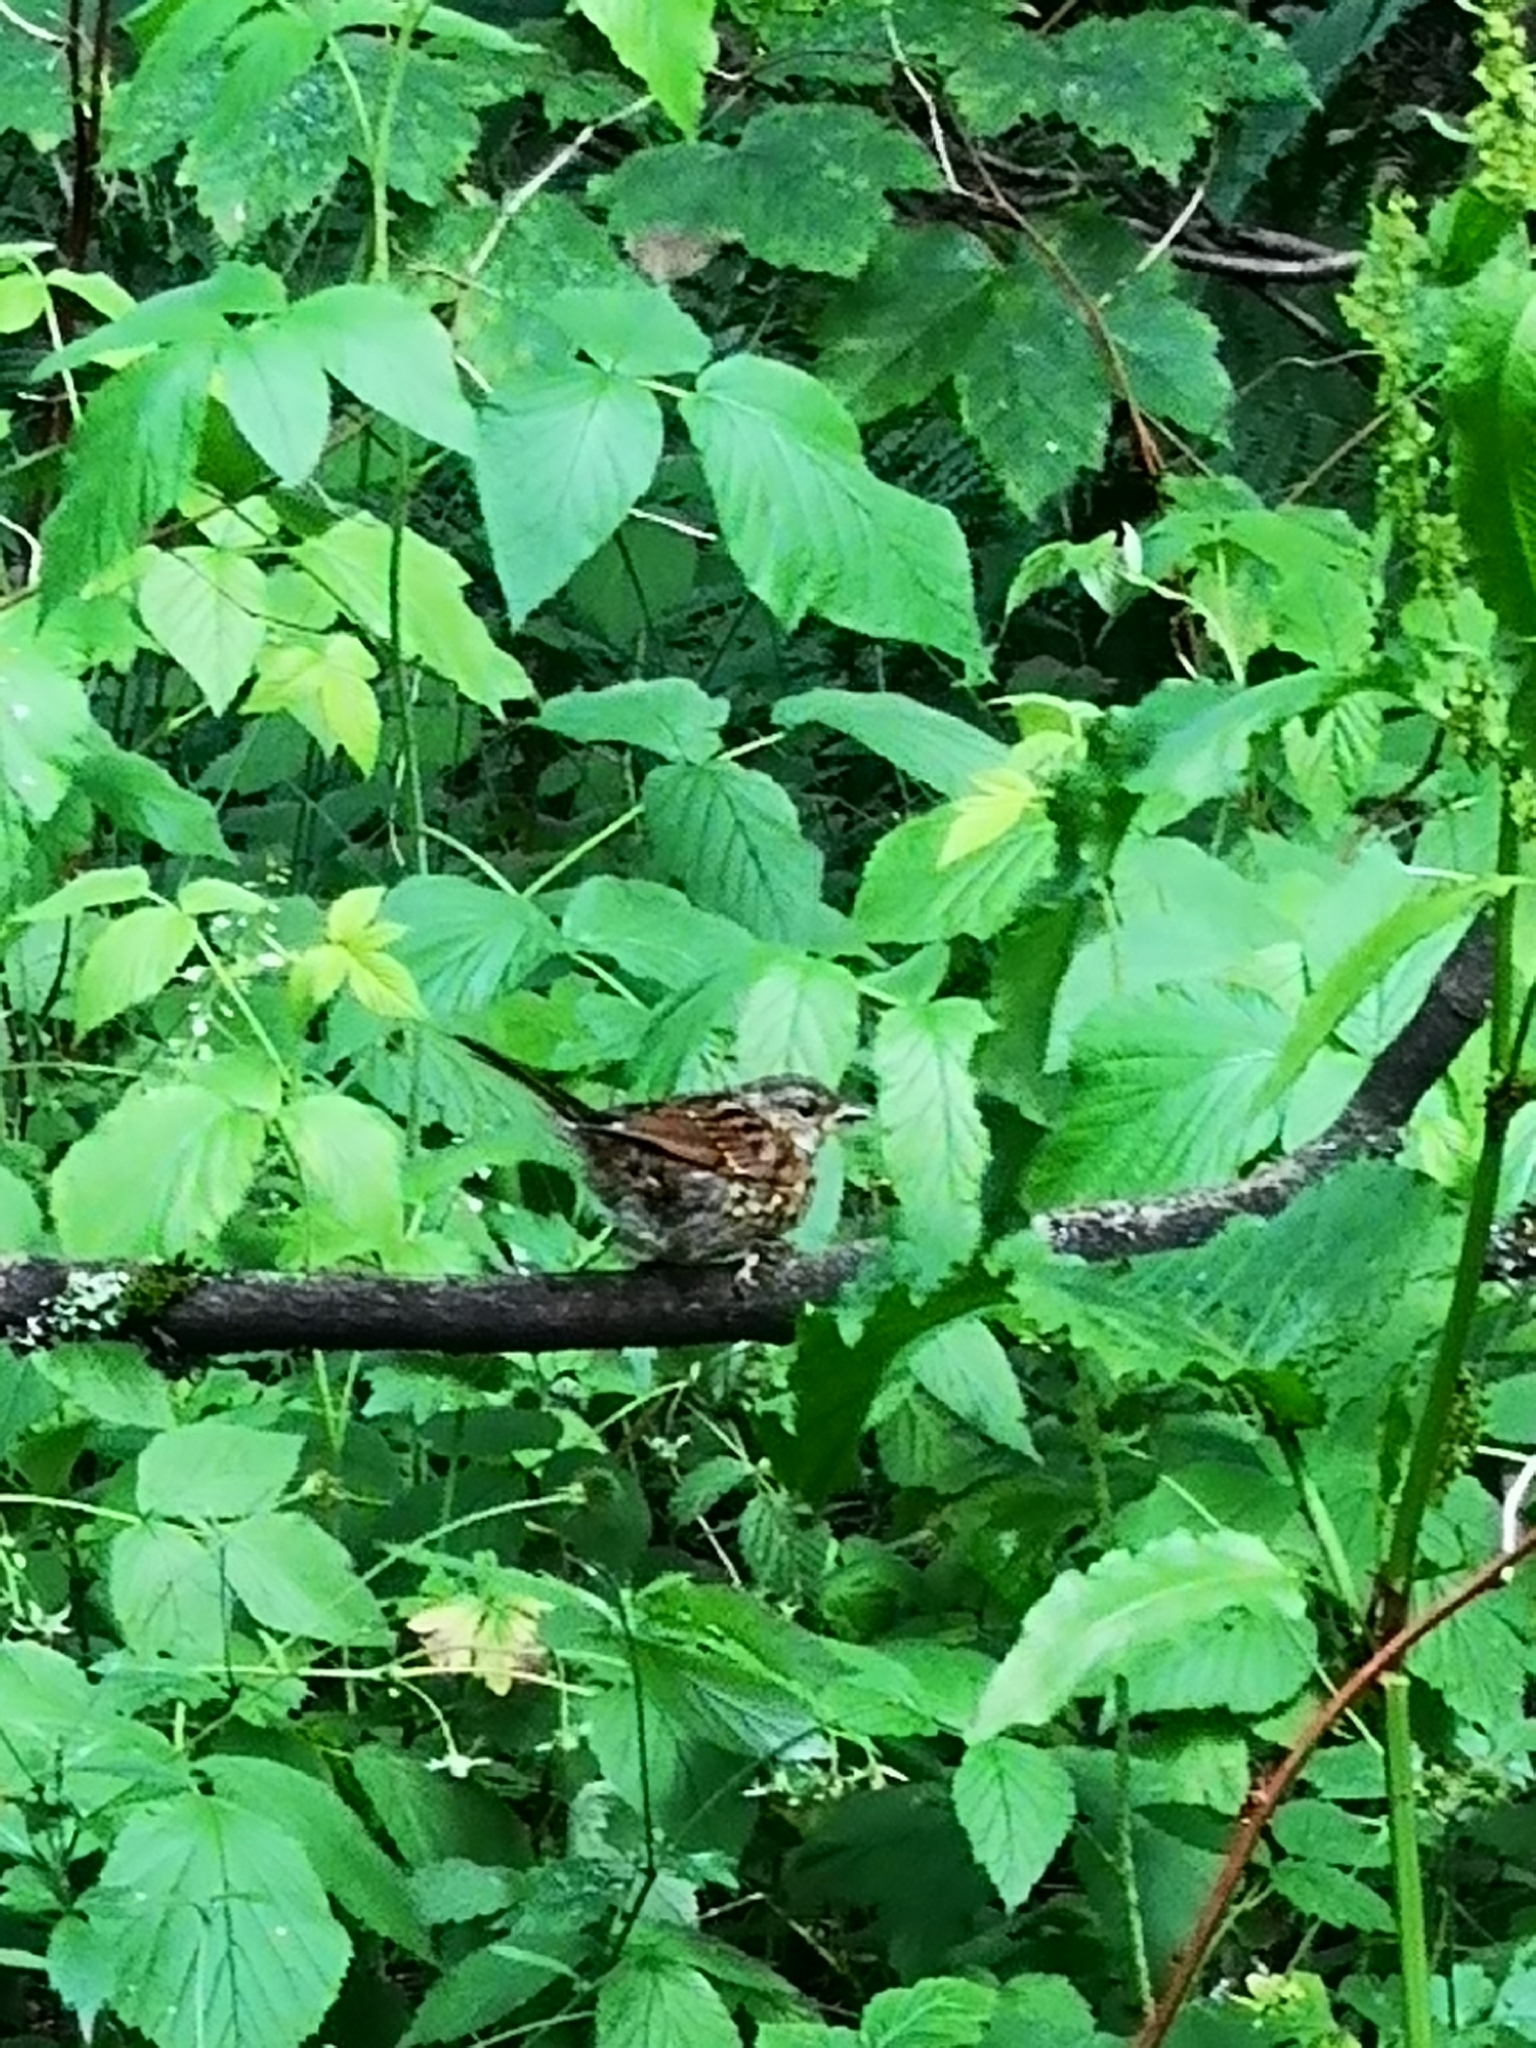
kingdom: Animalia
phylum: Chordata
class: Aves
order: Passeriformes
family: Prunellidae
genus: Prunella
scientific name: Prunella modularis
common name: Dunnock
